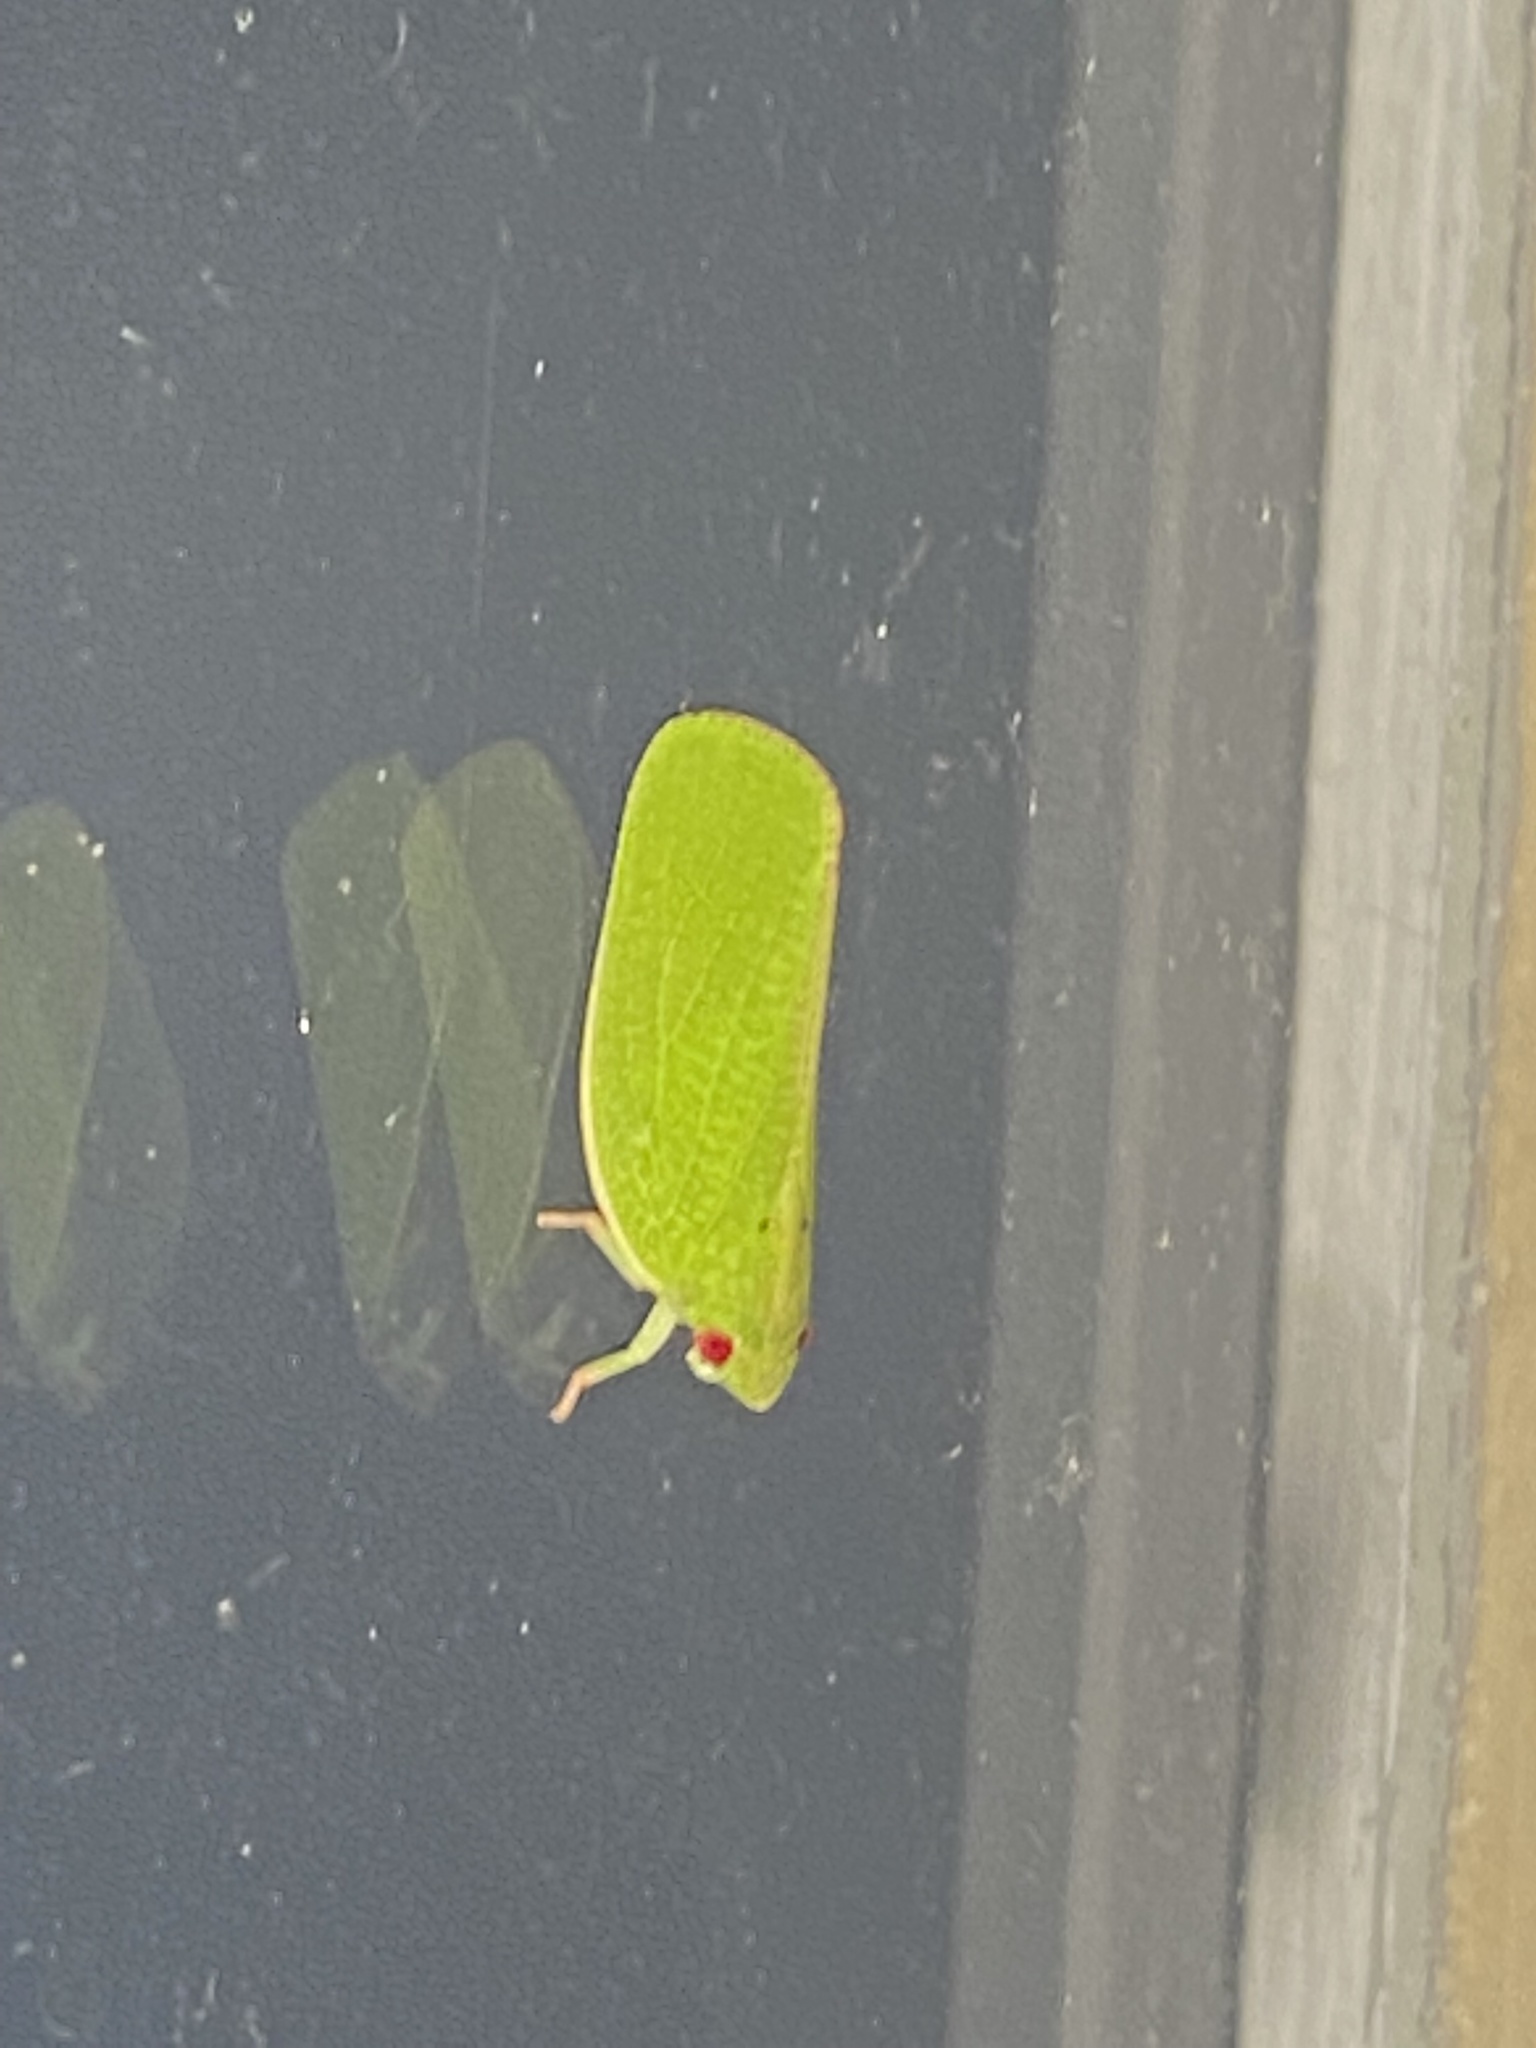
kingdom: Animalia
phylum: Arthropoda
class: Insecta
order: Hemiptera
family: Acanaloniidae
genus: Acanalonia
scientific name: Acanalonia conica
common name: Green cone-headed planthopper
